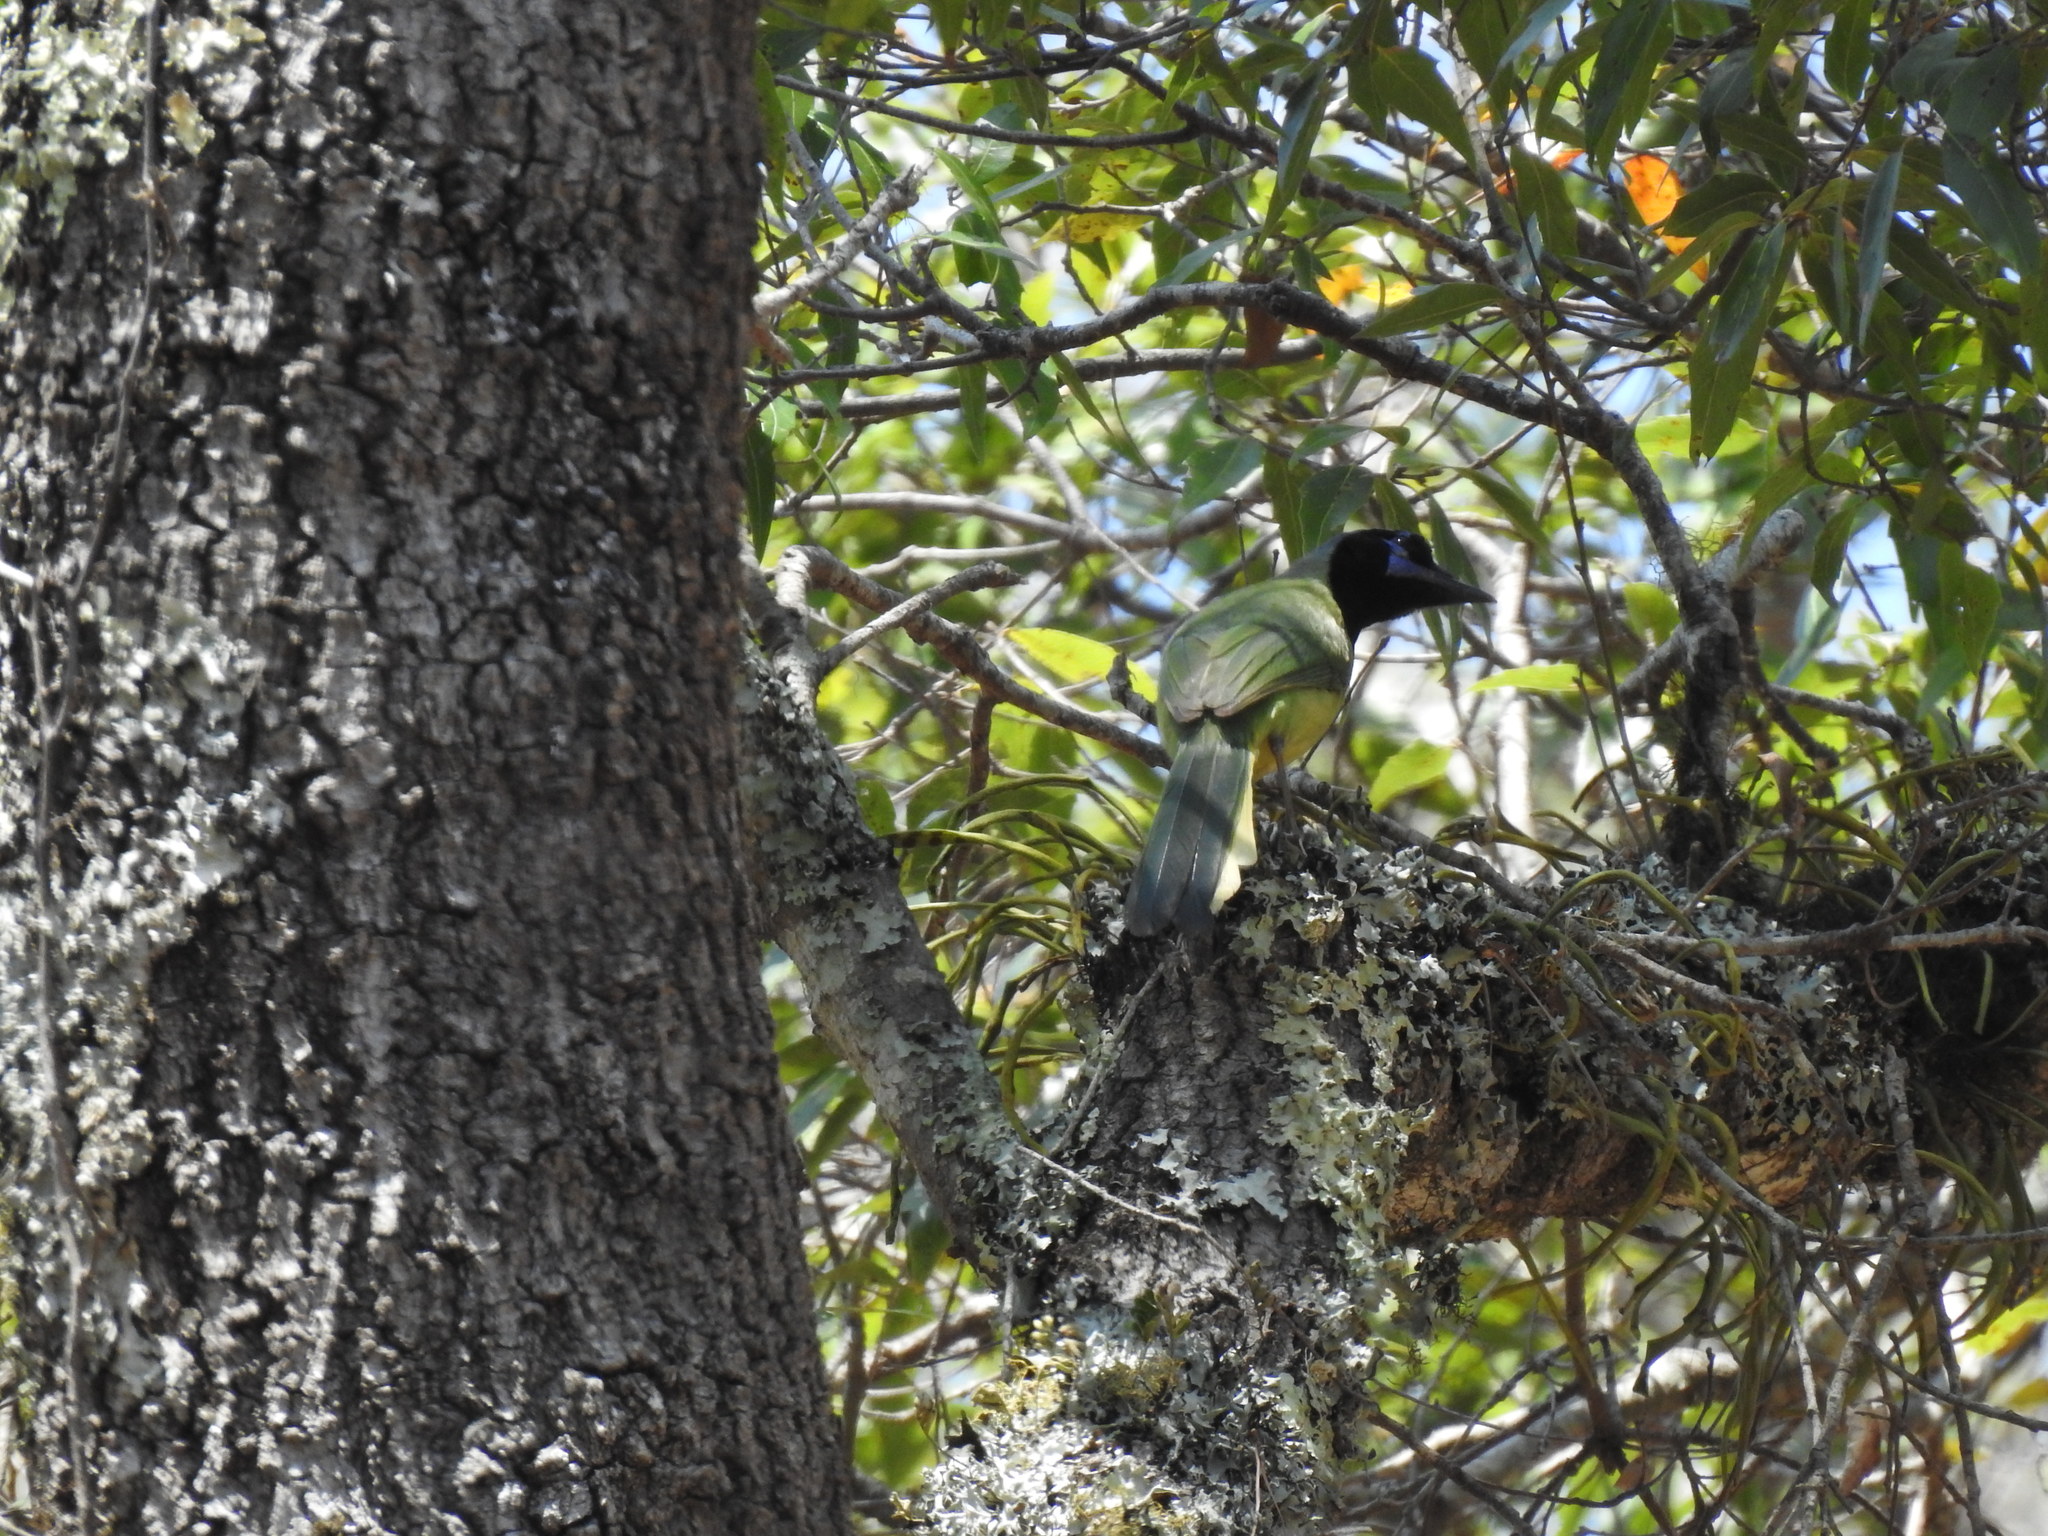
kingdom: Animalia
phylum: Chordata
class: Aves
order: Passeriformes
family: Corvidae
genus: Cyanocorax
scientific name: Cyanocorax yncas
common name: Green jay
